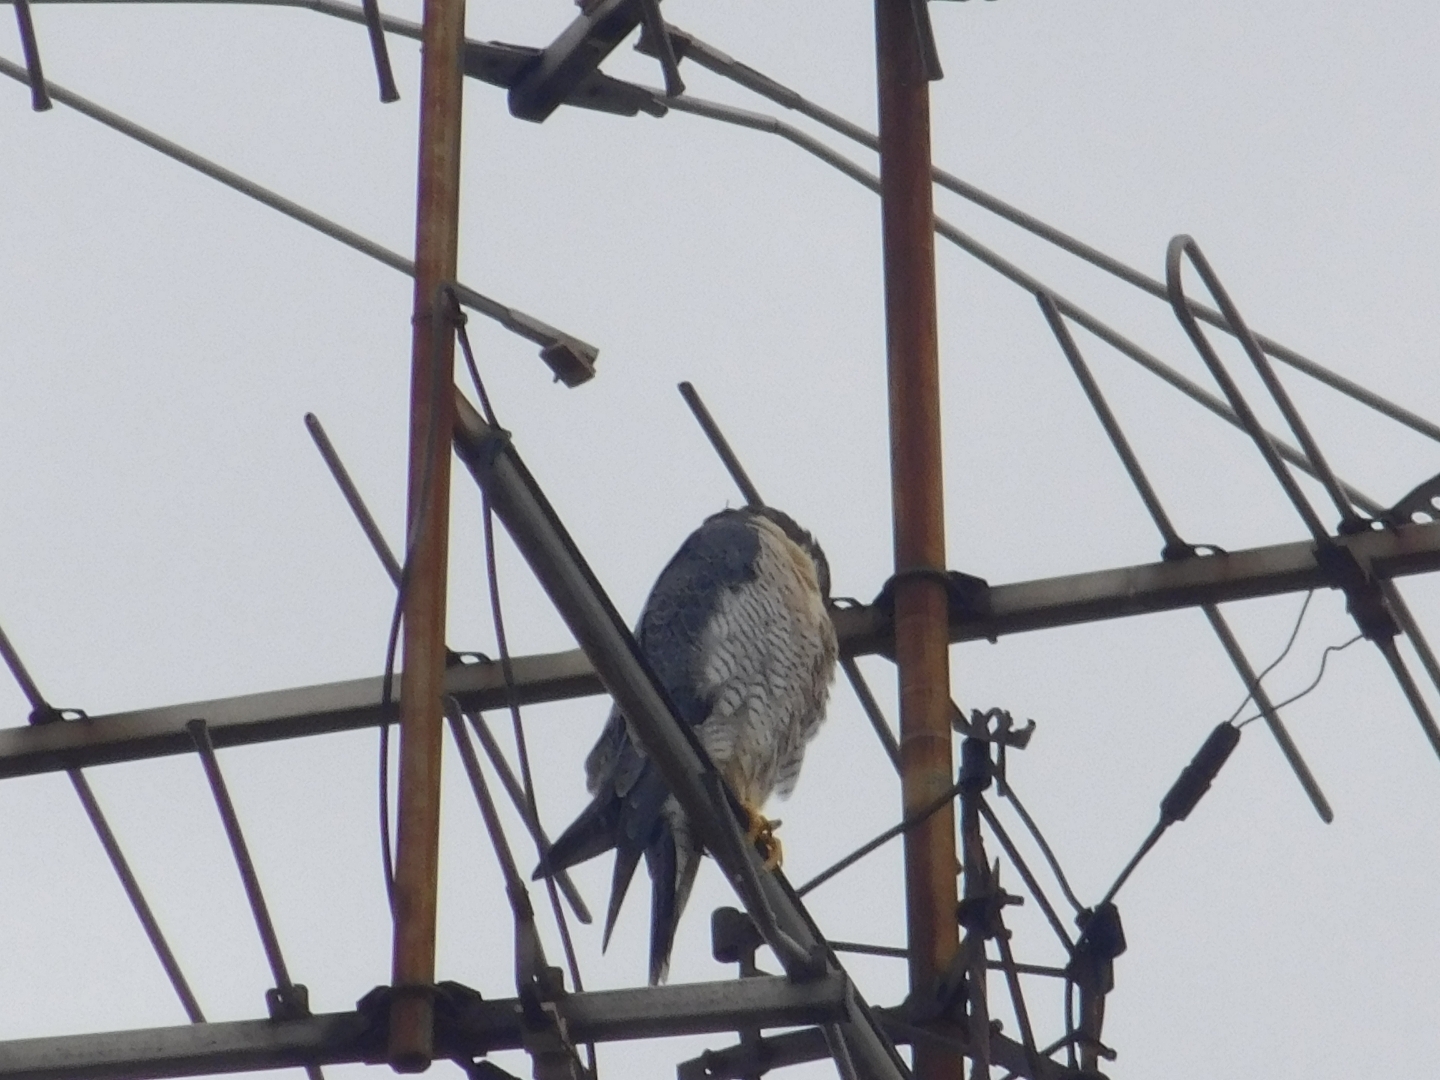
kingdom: Animalia
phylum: Chordata
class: Aves
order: Falconiformes
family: Falconidae
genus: Falco
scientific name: Falco peregrinus
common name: Peregrine falcon
